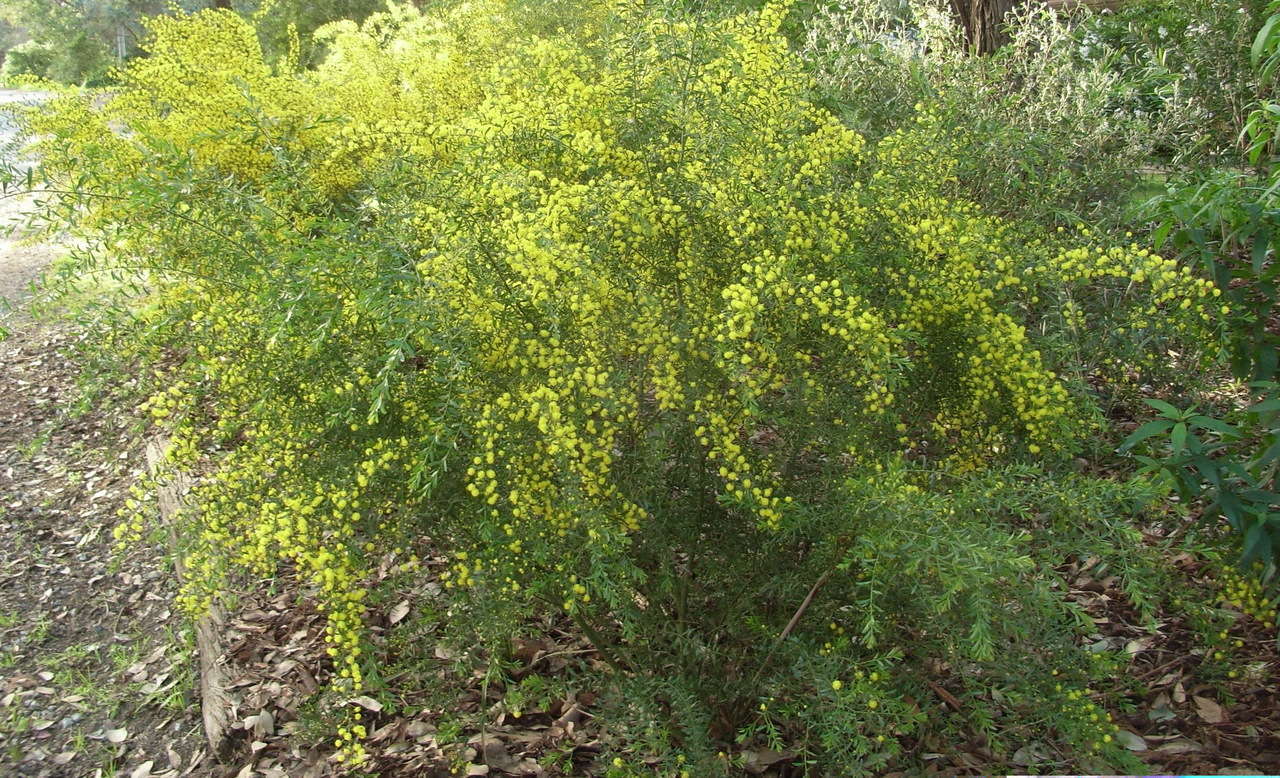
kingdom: Plantae
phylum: Tracheophyta
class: Magnoliopsida
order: Fabales
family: Fabaceae
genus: Acacia
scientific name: Acacia acinacea
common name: Gold-dust acacia
